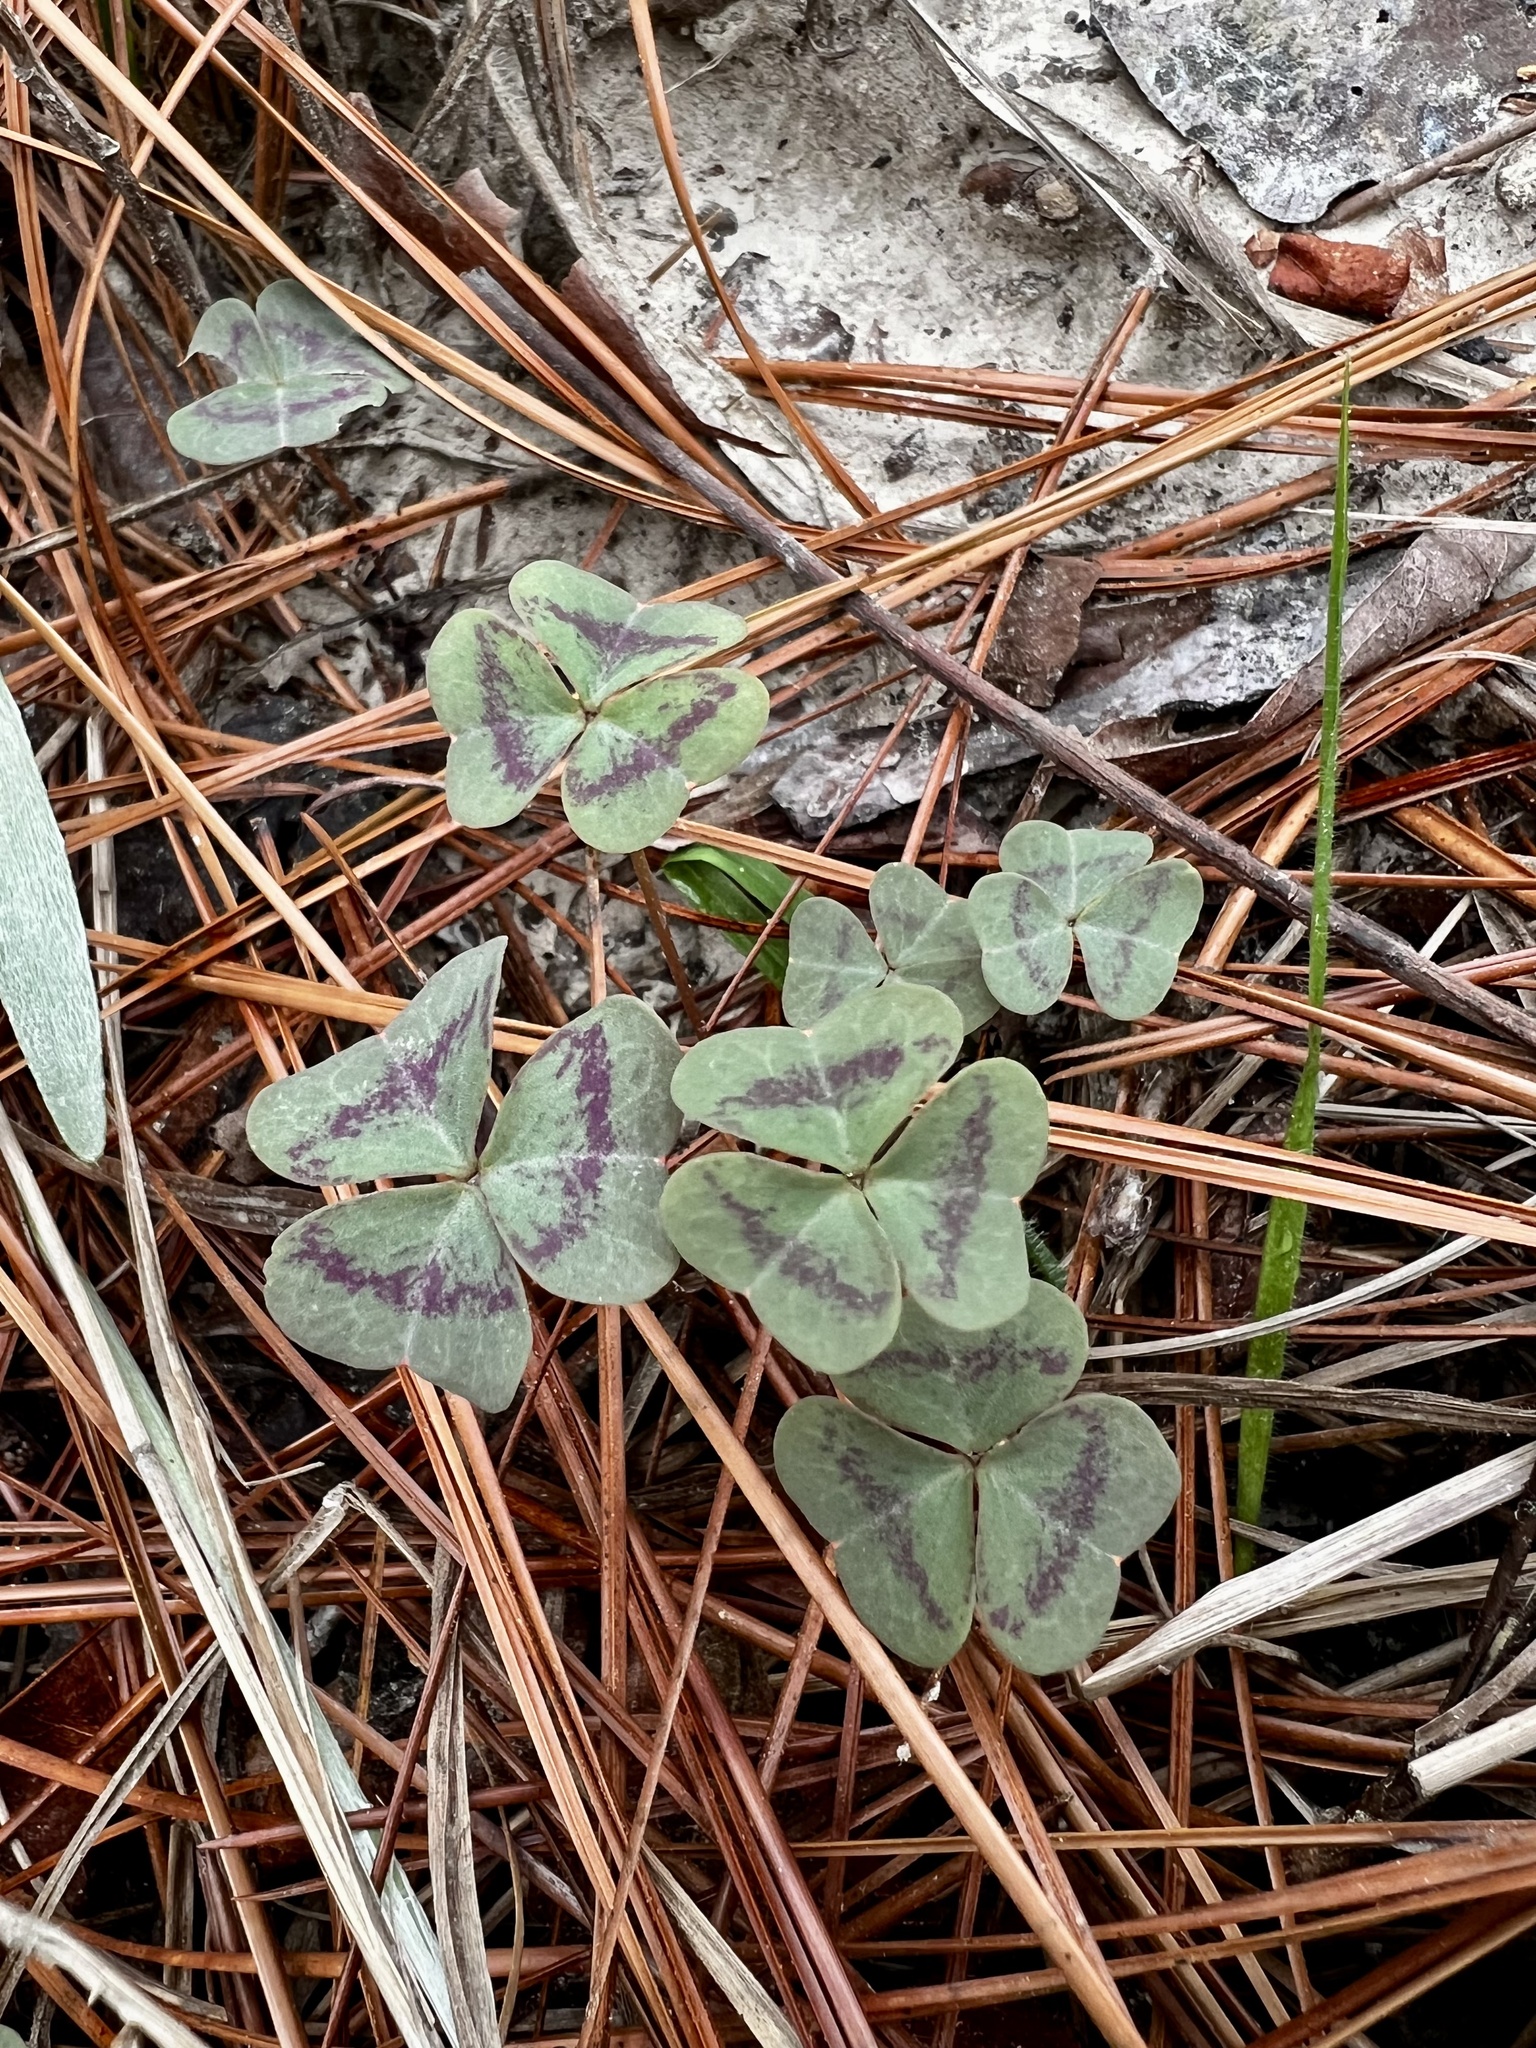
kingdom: Plantae
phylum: Tracheophyta
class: Magnoliopsida
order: Oxalidales
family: Oxalidaceae
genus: Oxalis
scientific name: Oxalis violacea
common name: Violet wood-sorrel
